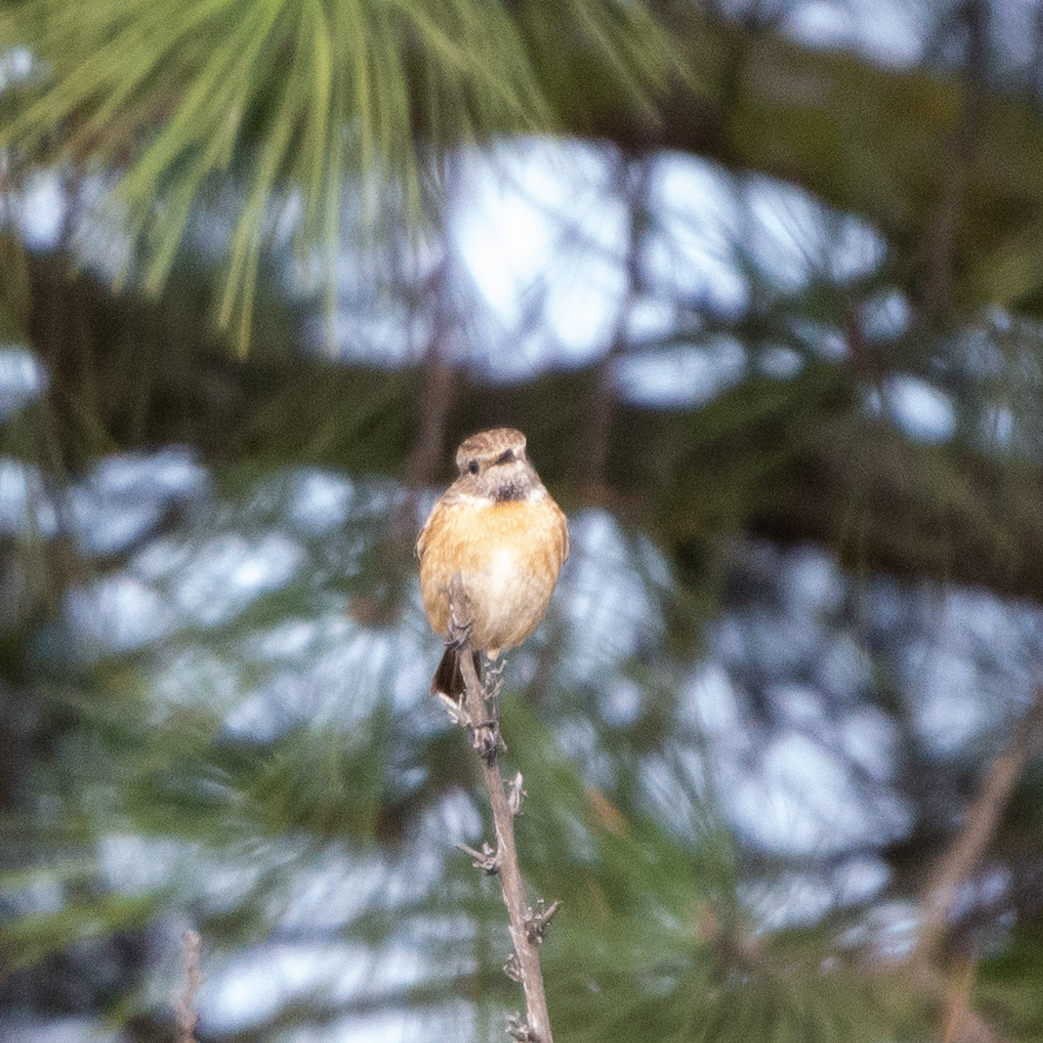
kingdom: Animalia
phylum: Chordata
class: Aves
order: Passeriformes
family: Muscicapidae
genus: Saxicola
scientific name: Saxicola rubicola
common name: European stonechat
